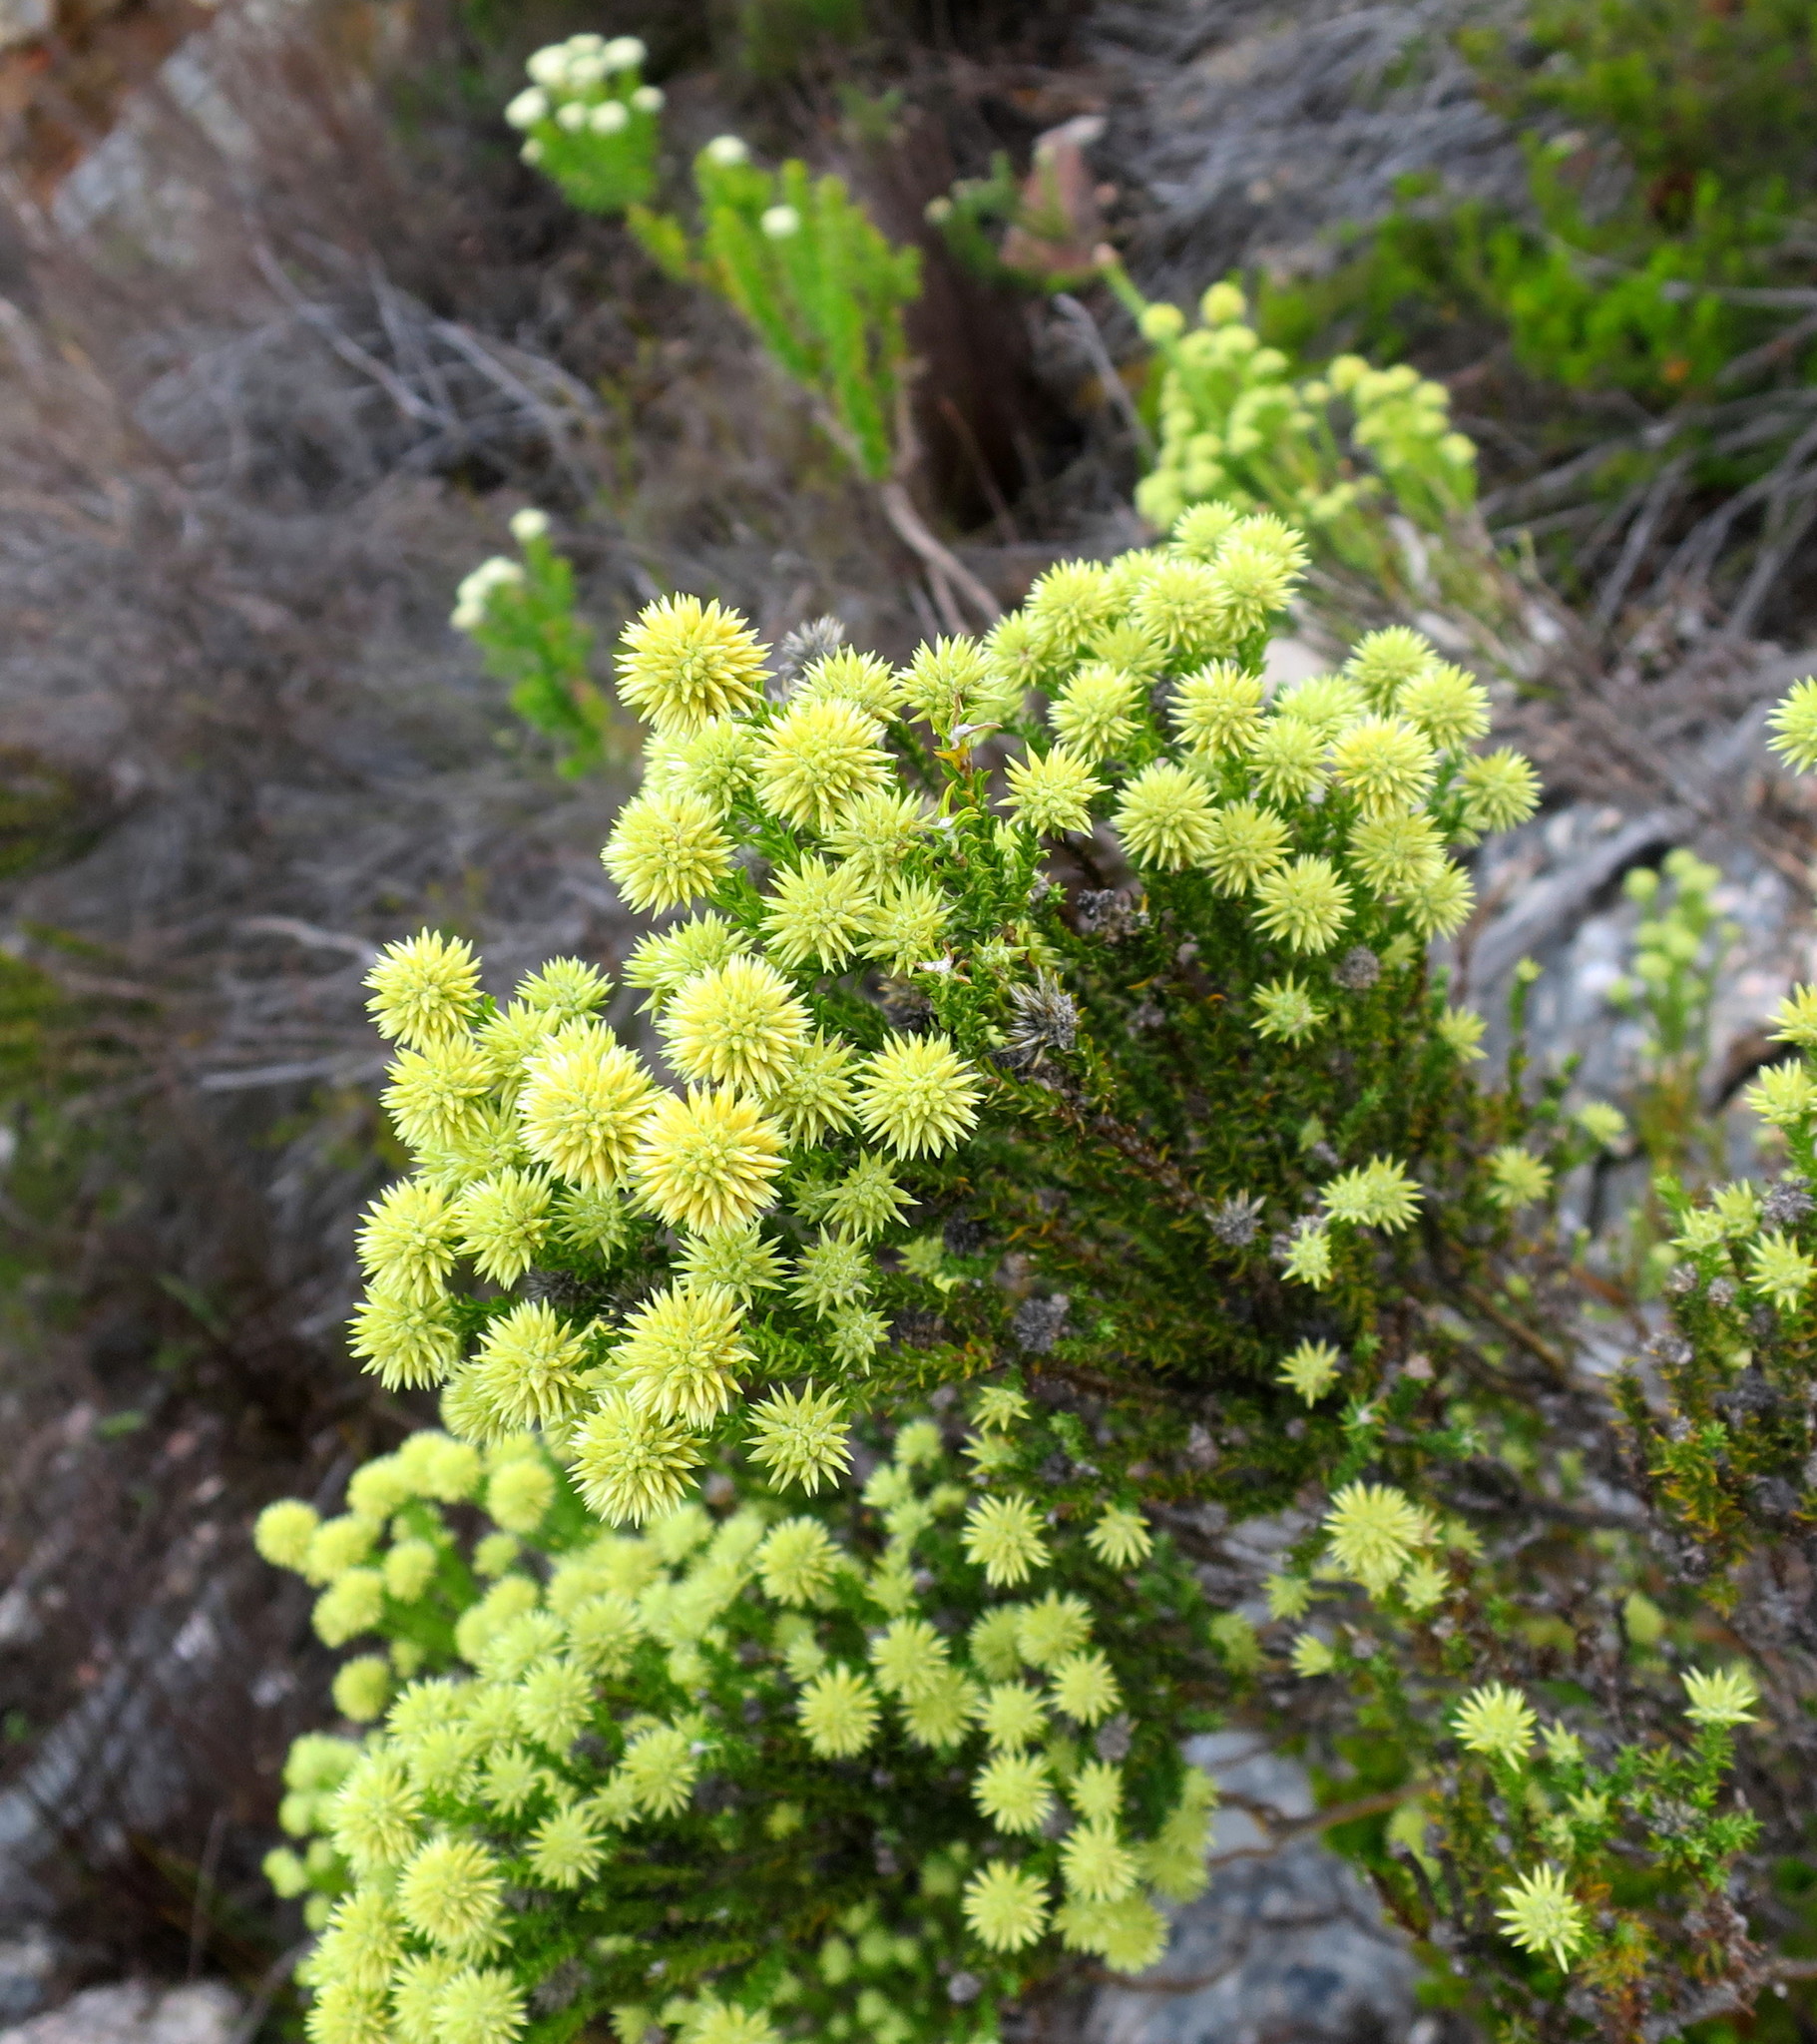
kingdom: Plantae
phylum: Tracheophyta
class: Magnoliopsida
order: Asterales
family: Asteraceae
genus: Seriphium
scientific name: Seriphium spirale
